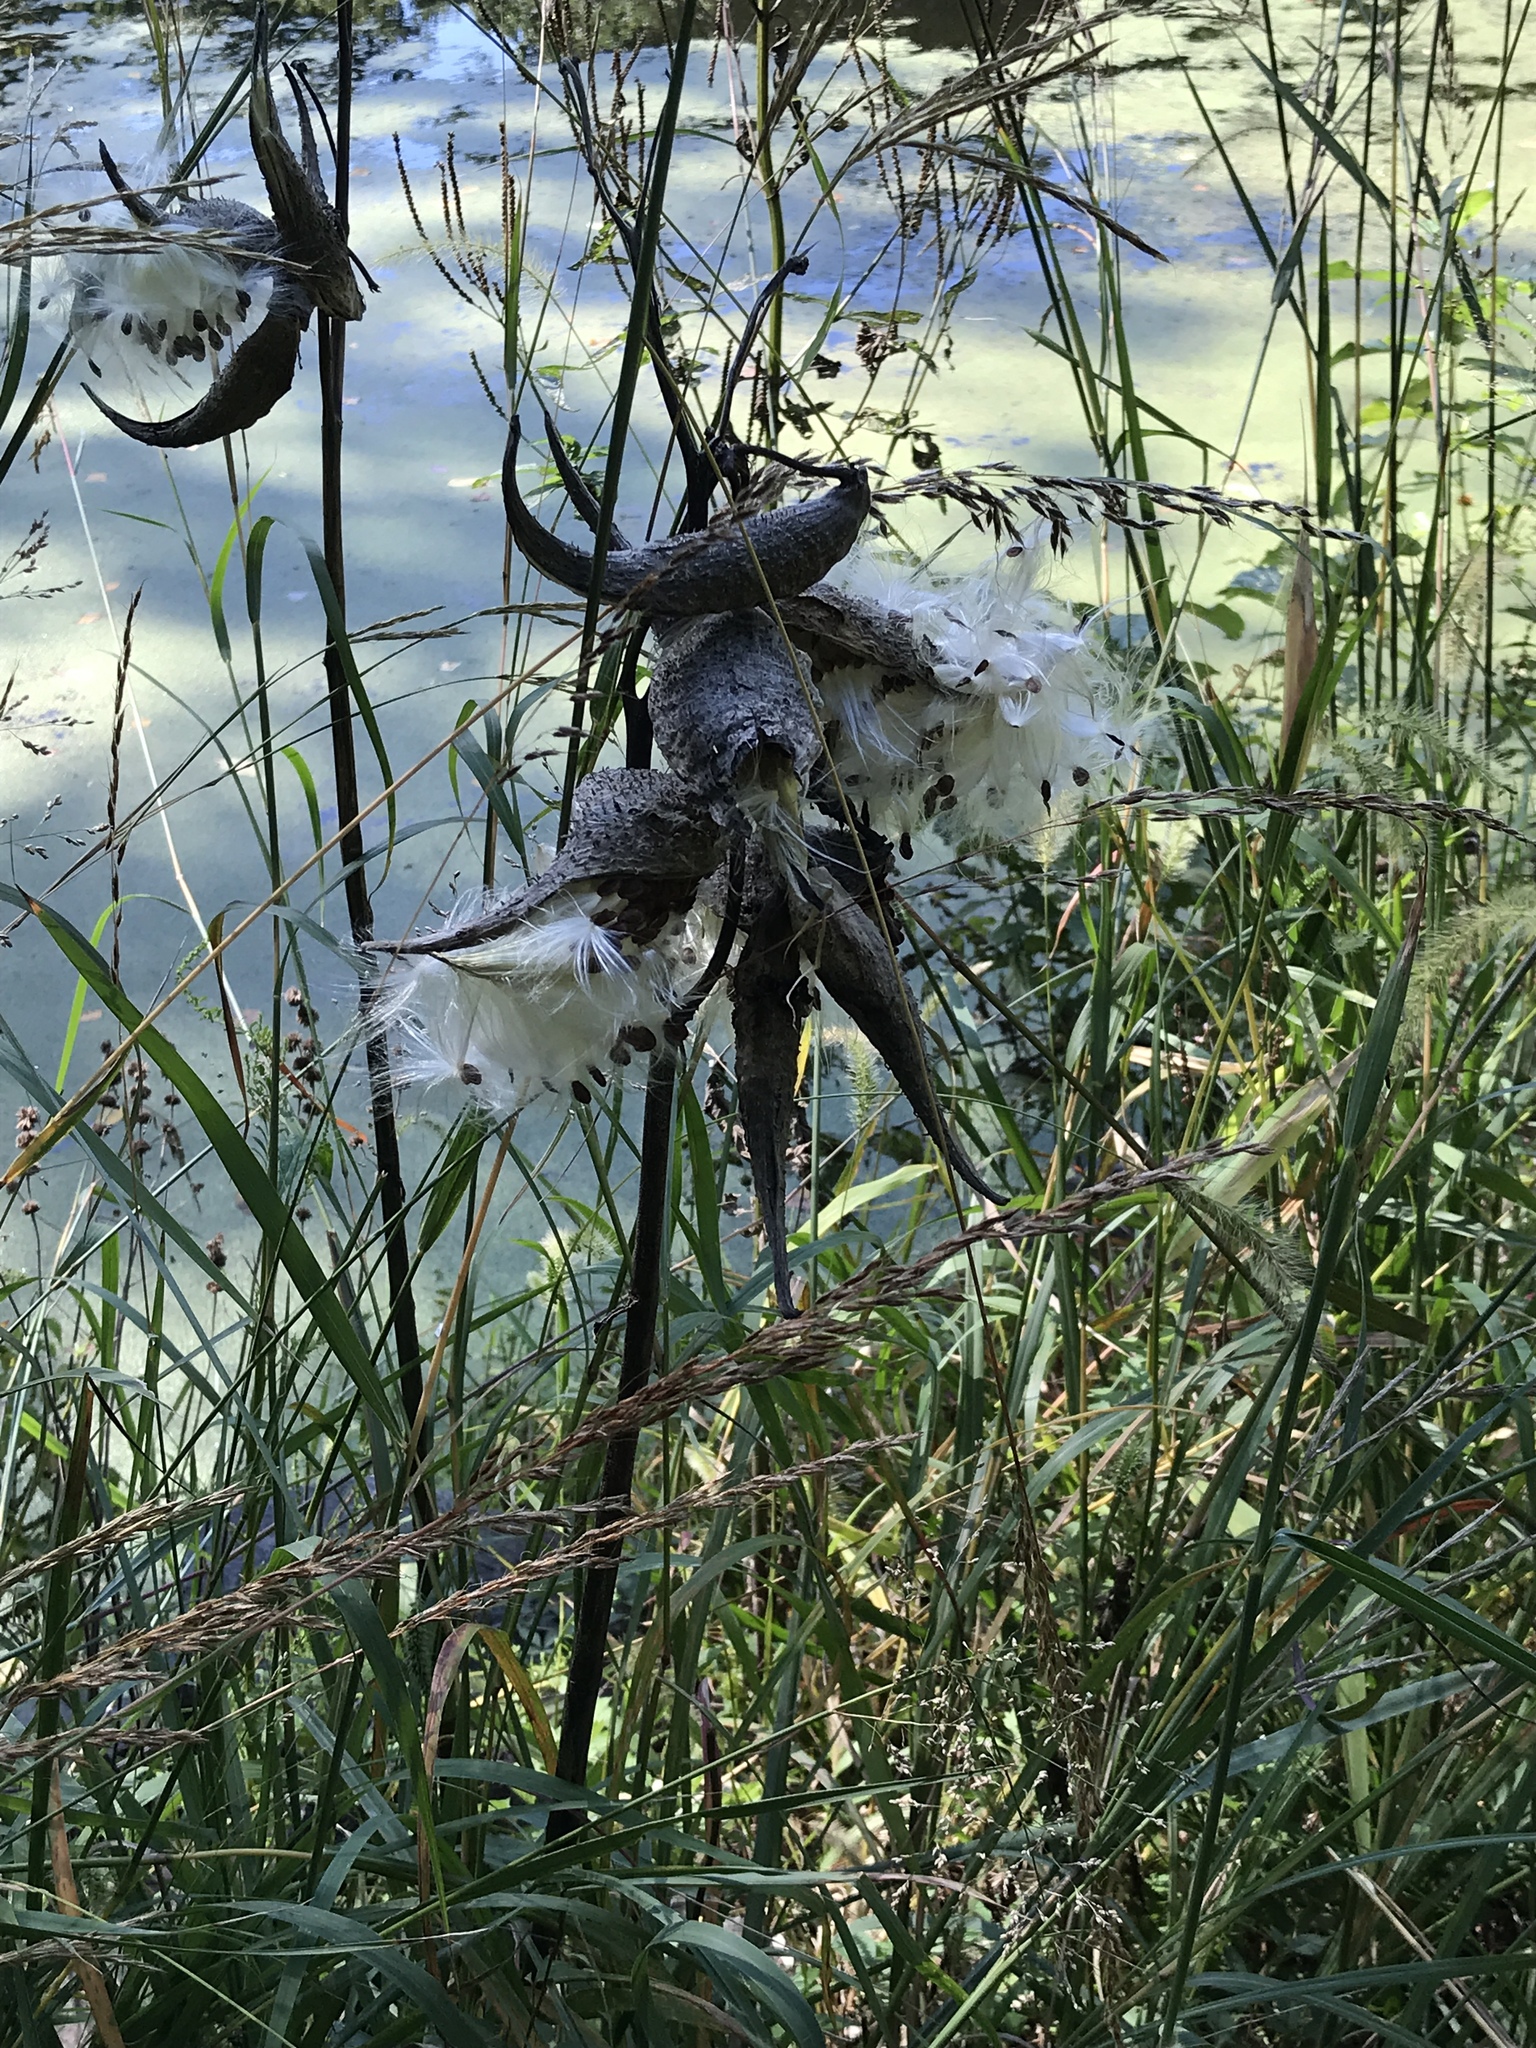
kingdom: Plantae
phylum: Tracheophyta
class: Magnoliopsida
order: Gentianales
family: Apocynaceae
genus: Asclepias
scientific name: Asclepias syriaca
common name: Common milkweed
